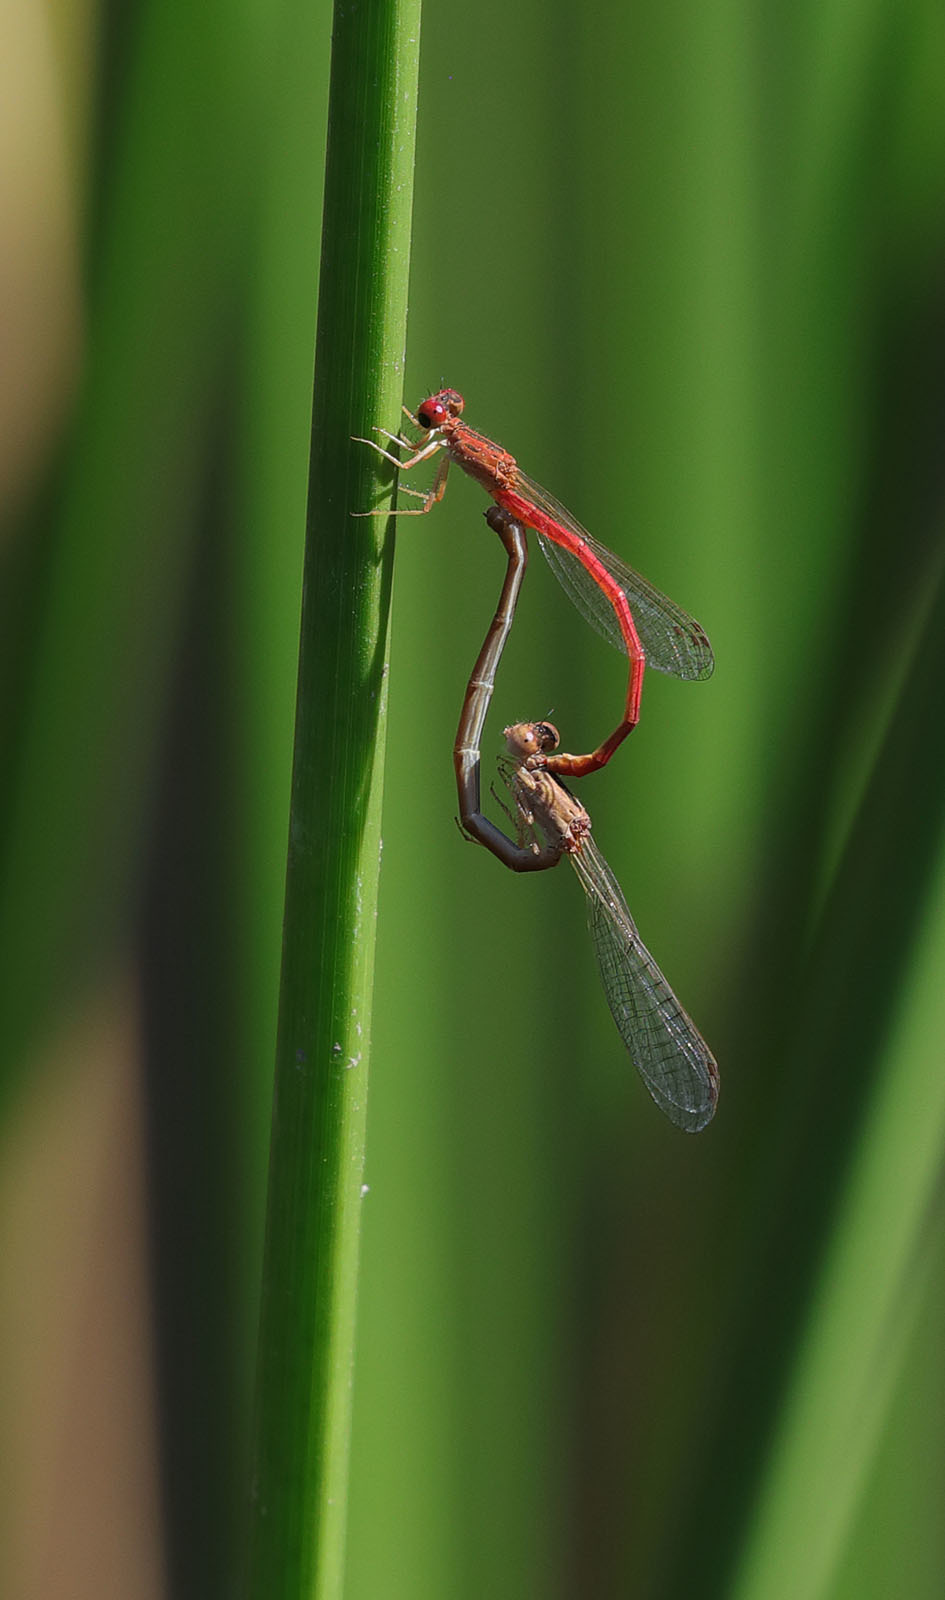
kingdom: Animalia
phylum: Arthropoda
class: Insecta
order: Odonata
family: Coenagrionidae
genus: Telebasis
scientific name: Telebasis salva
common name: Desert firetail
